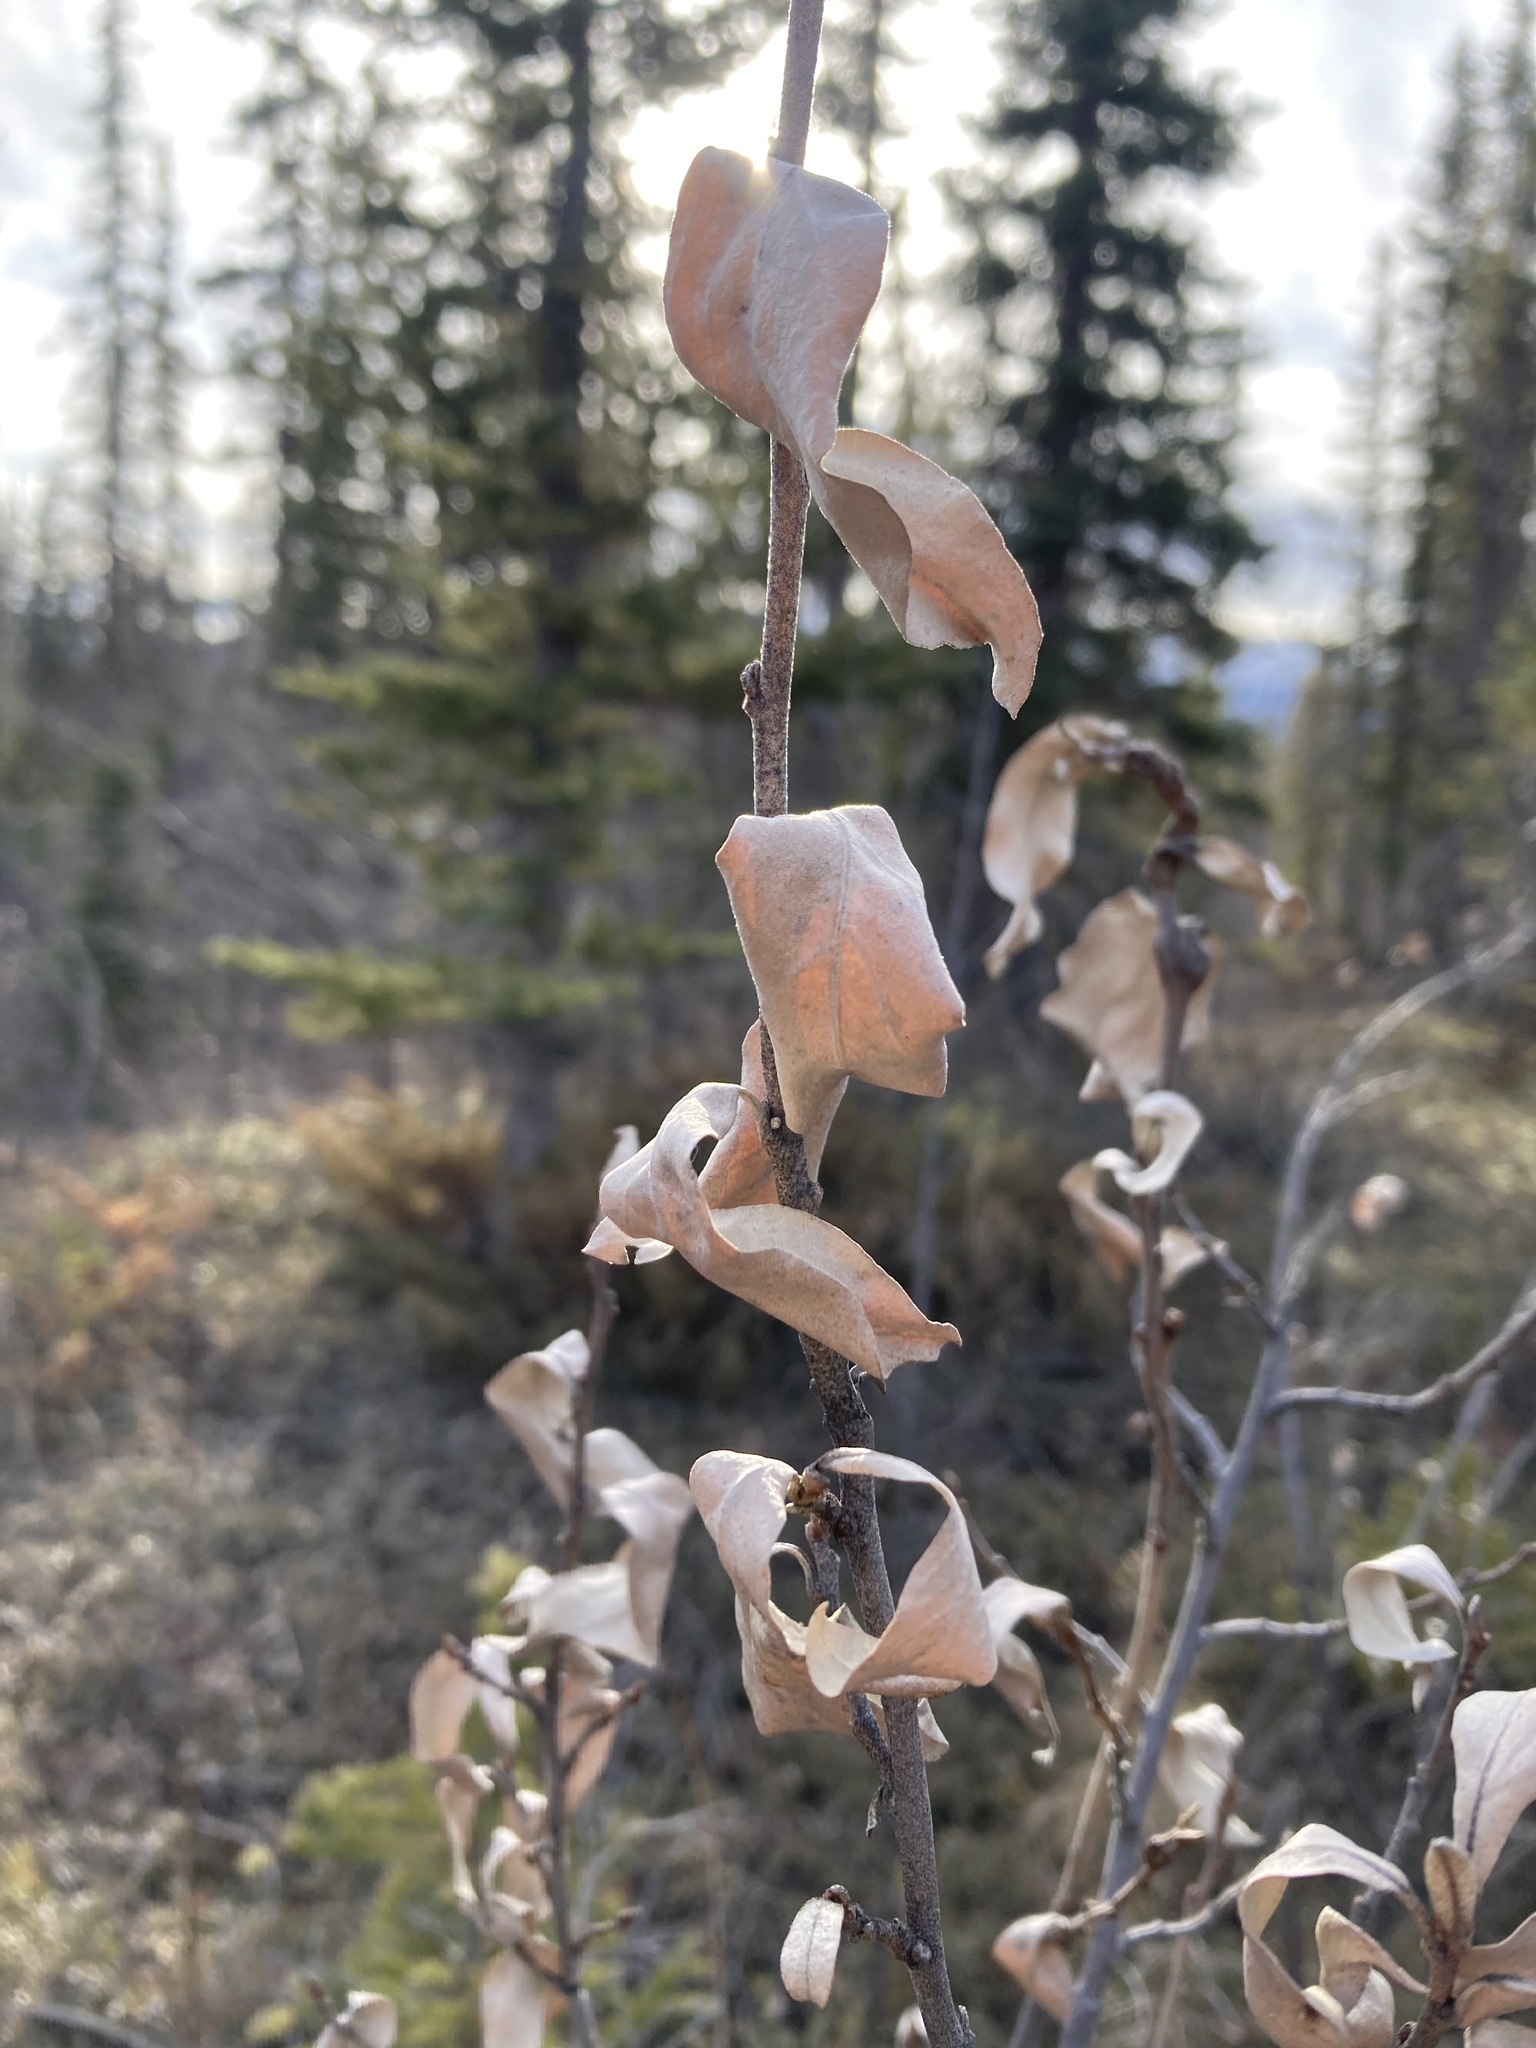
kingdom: Plantae
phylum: Tracheophyta
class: Magnoliopsida
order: Rosales
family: Elaeagnaceae
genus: Elaeagnus
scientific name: Elaeagnus commutata
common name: Silverberry
